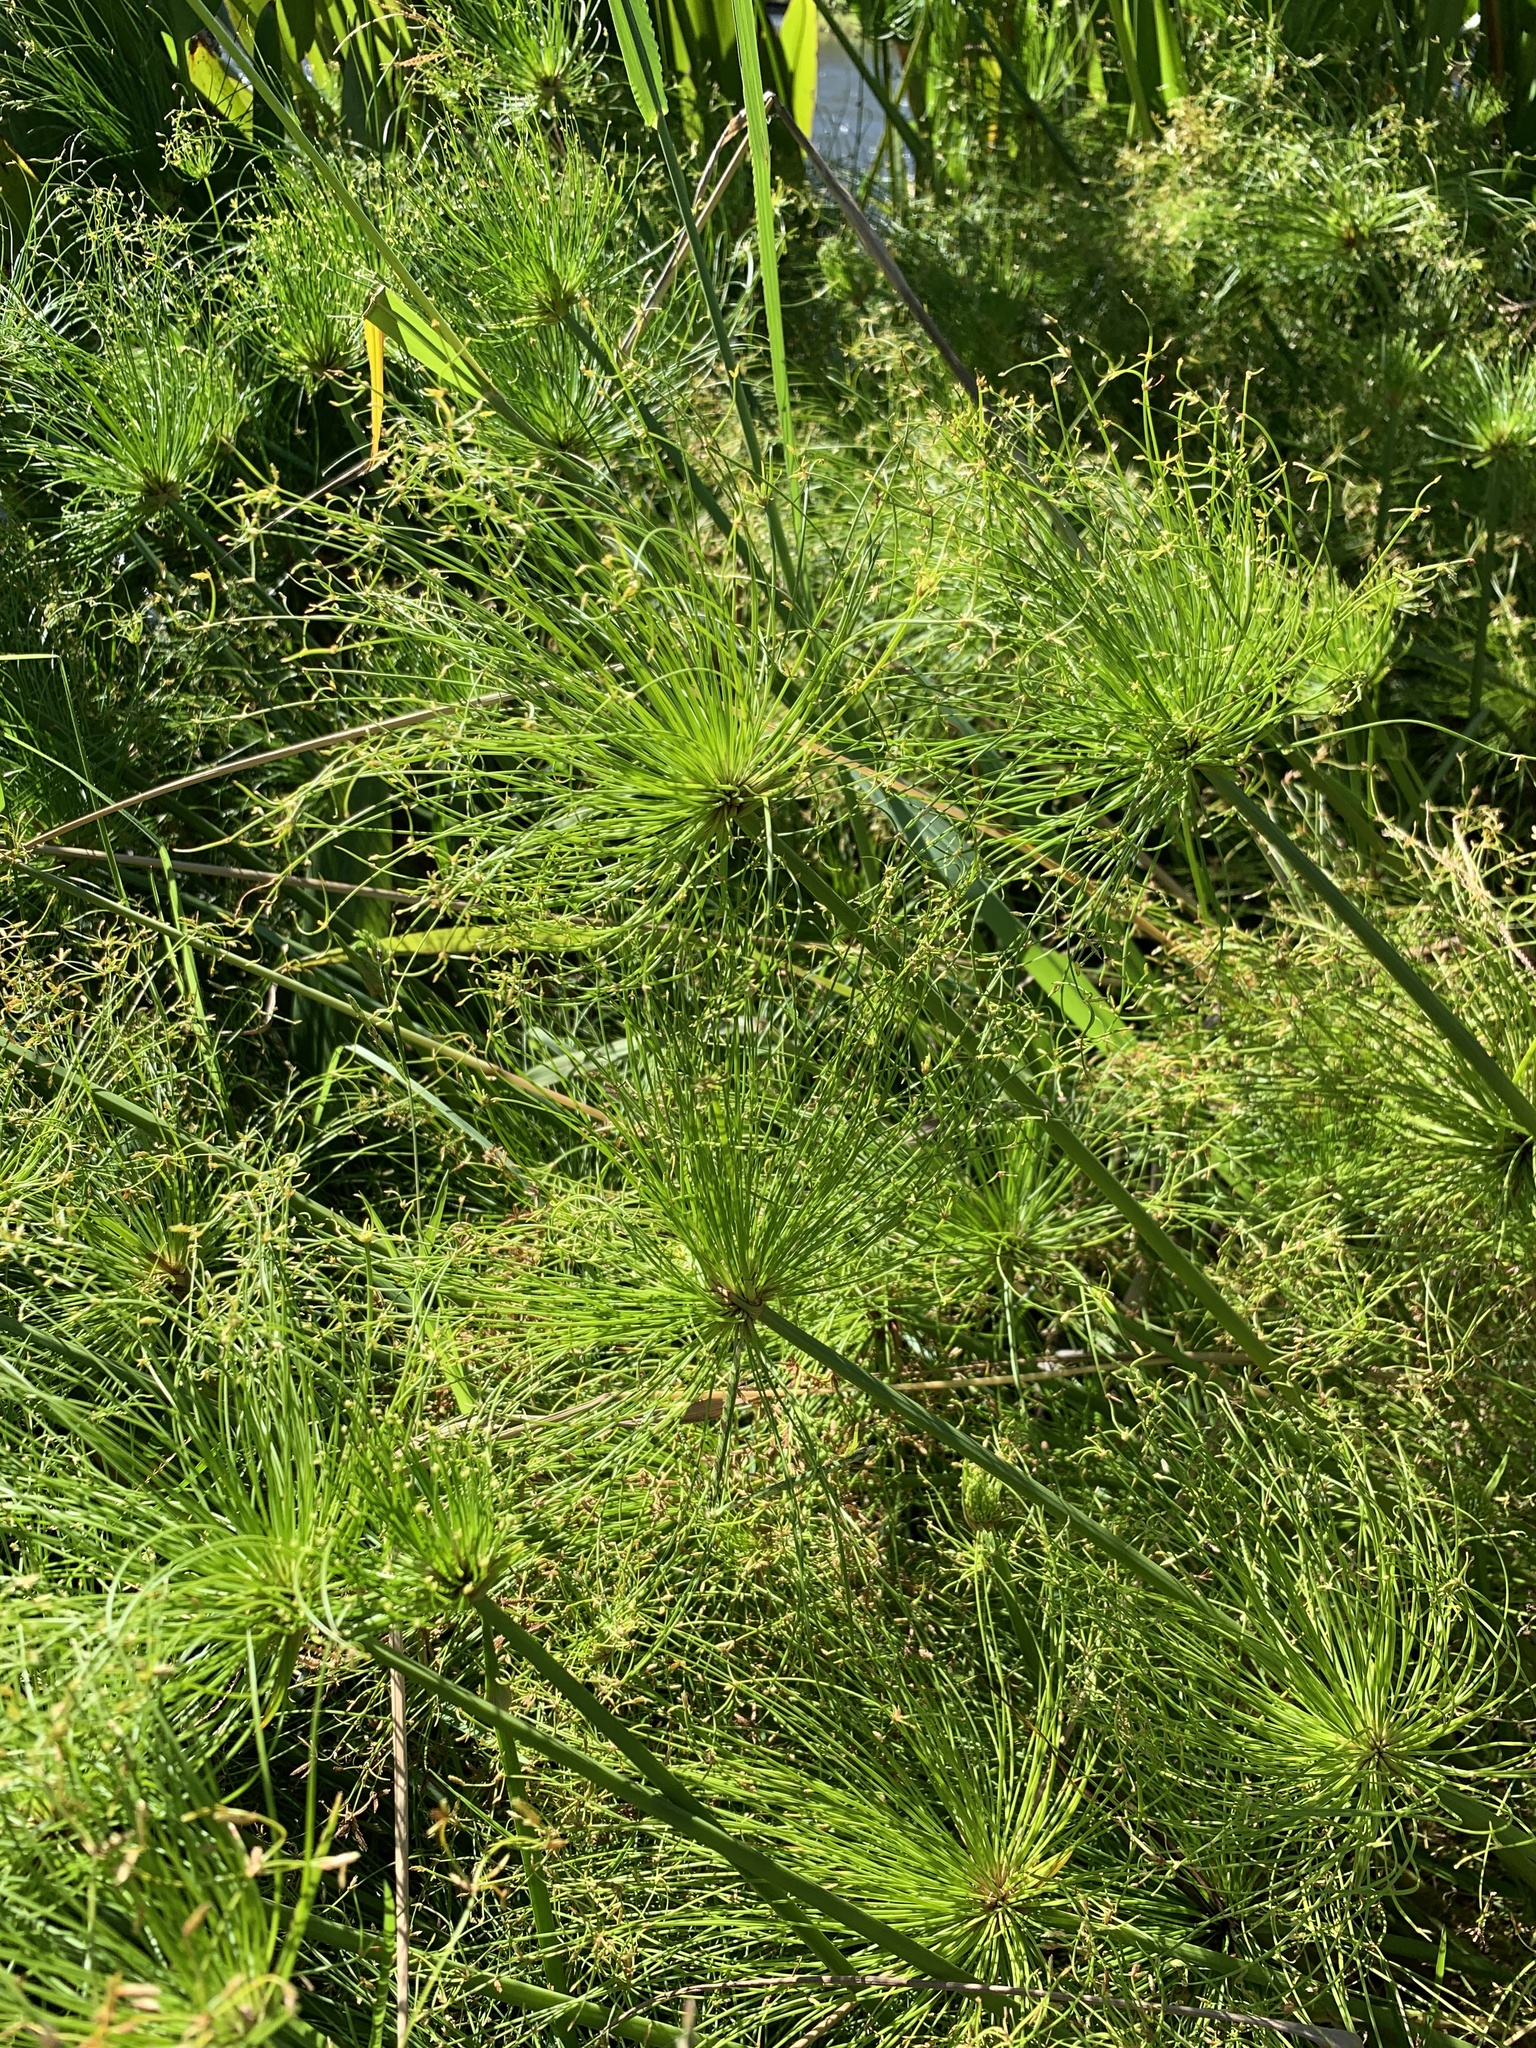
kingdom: Plantae
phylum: Tracheophyta
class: Liliopsida
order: Poales
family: Cyperaceae
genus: Cyperus
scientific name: Cyperus prolifer
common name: Miniature flatsedge
